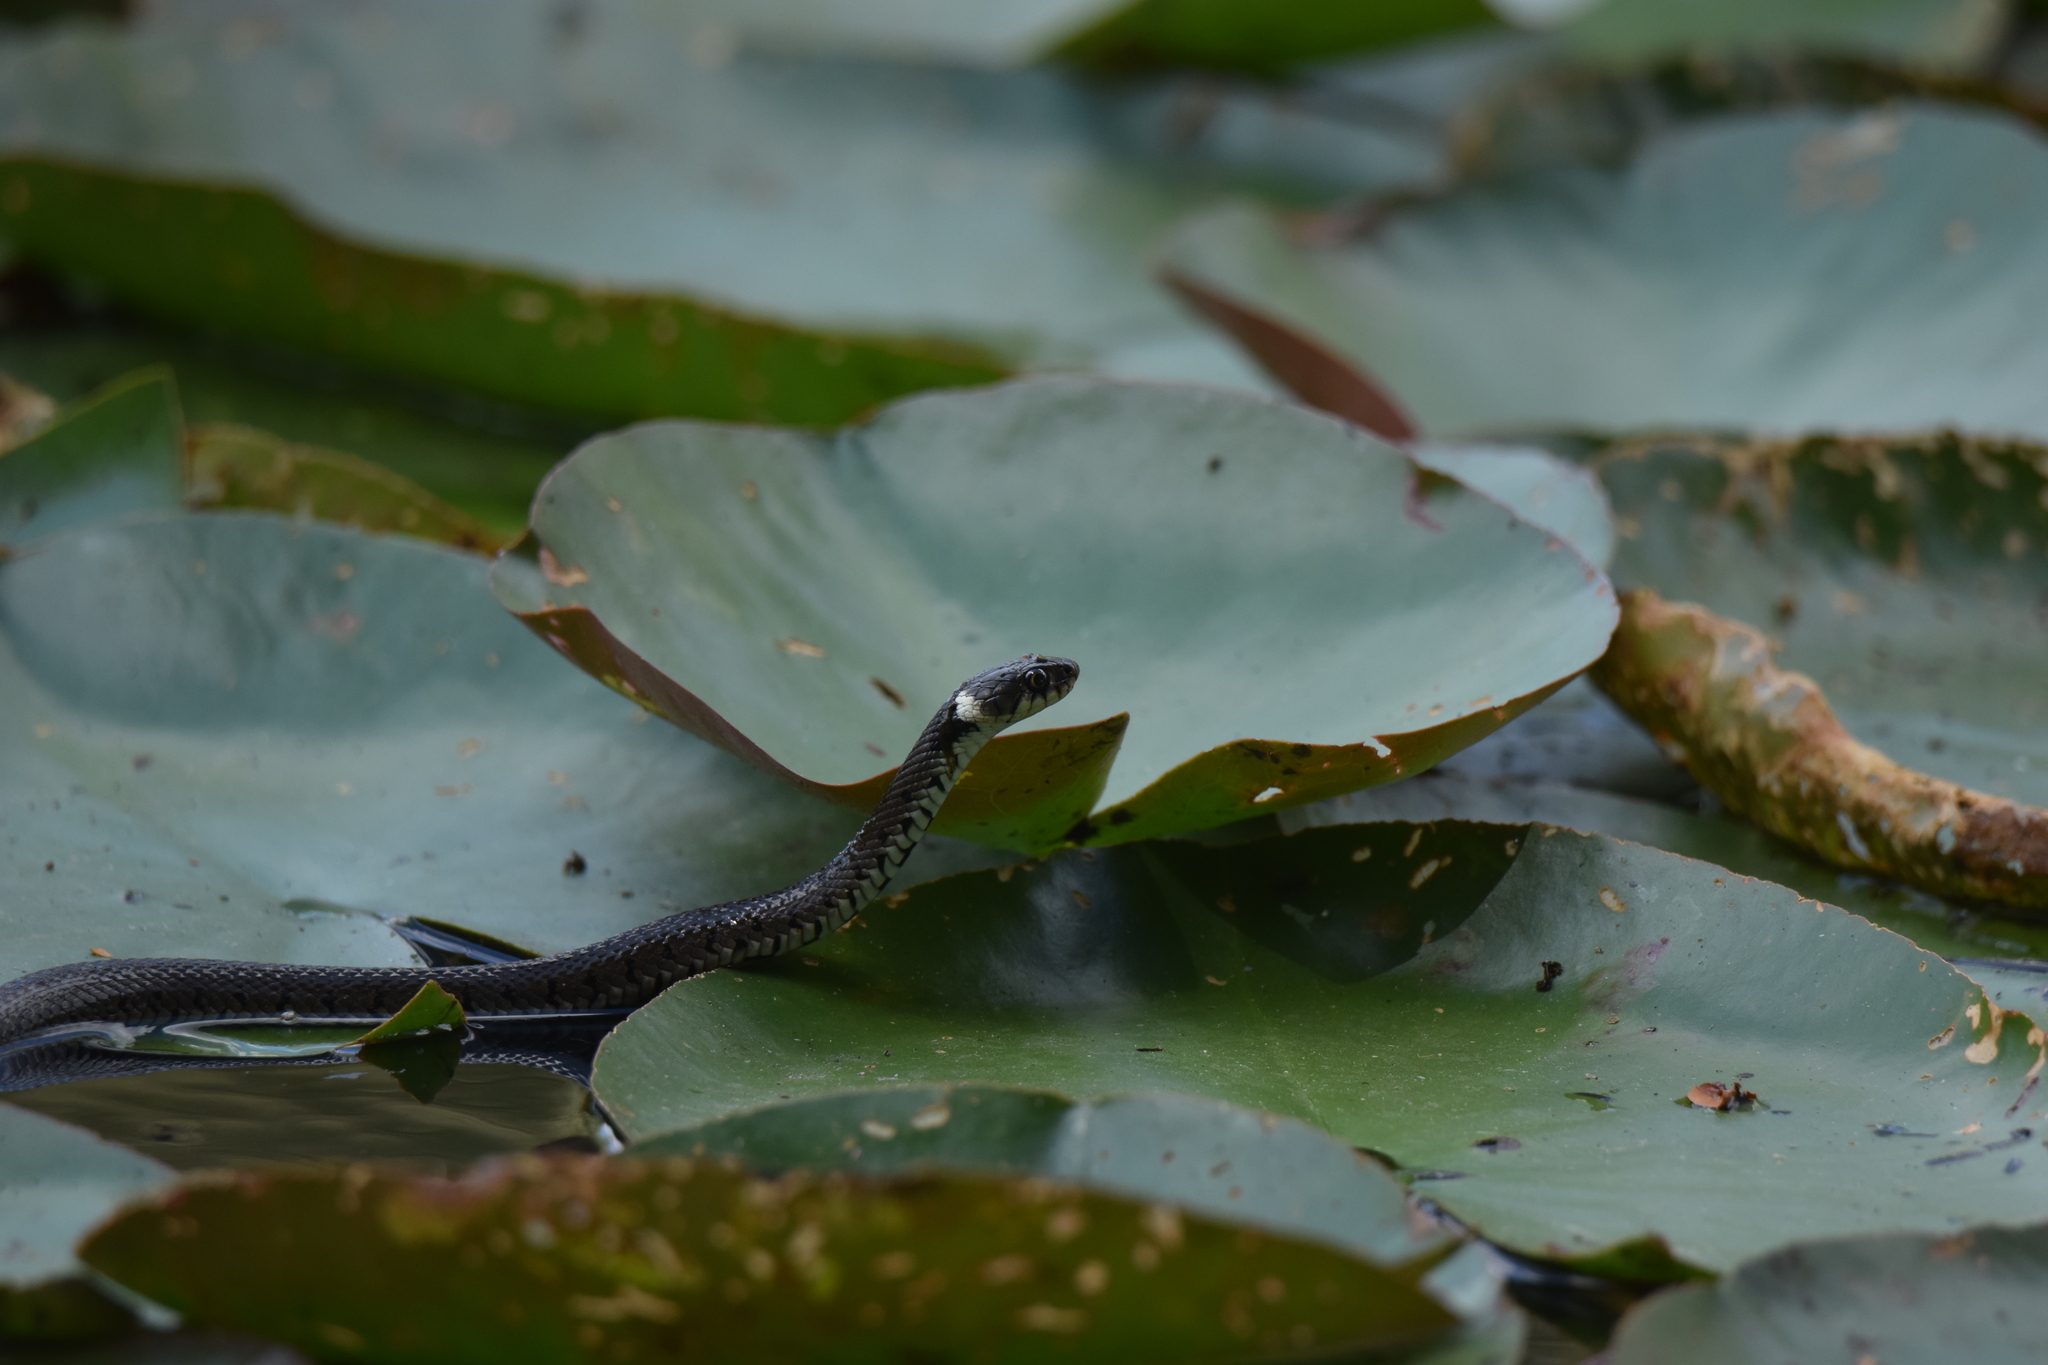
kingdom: Animalia
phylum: Chordata
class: Squamata
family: Colubridae
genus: Natrix
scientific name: Natrix helvetica
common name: Banded grass snake
